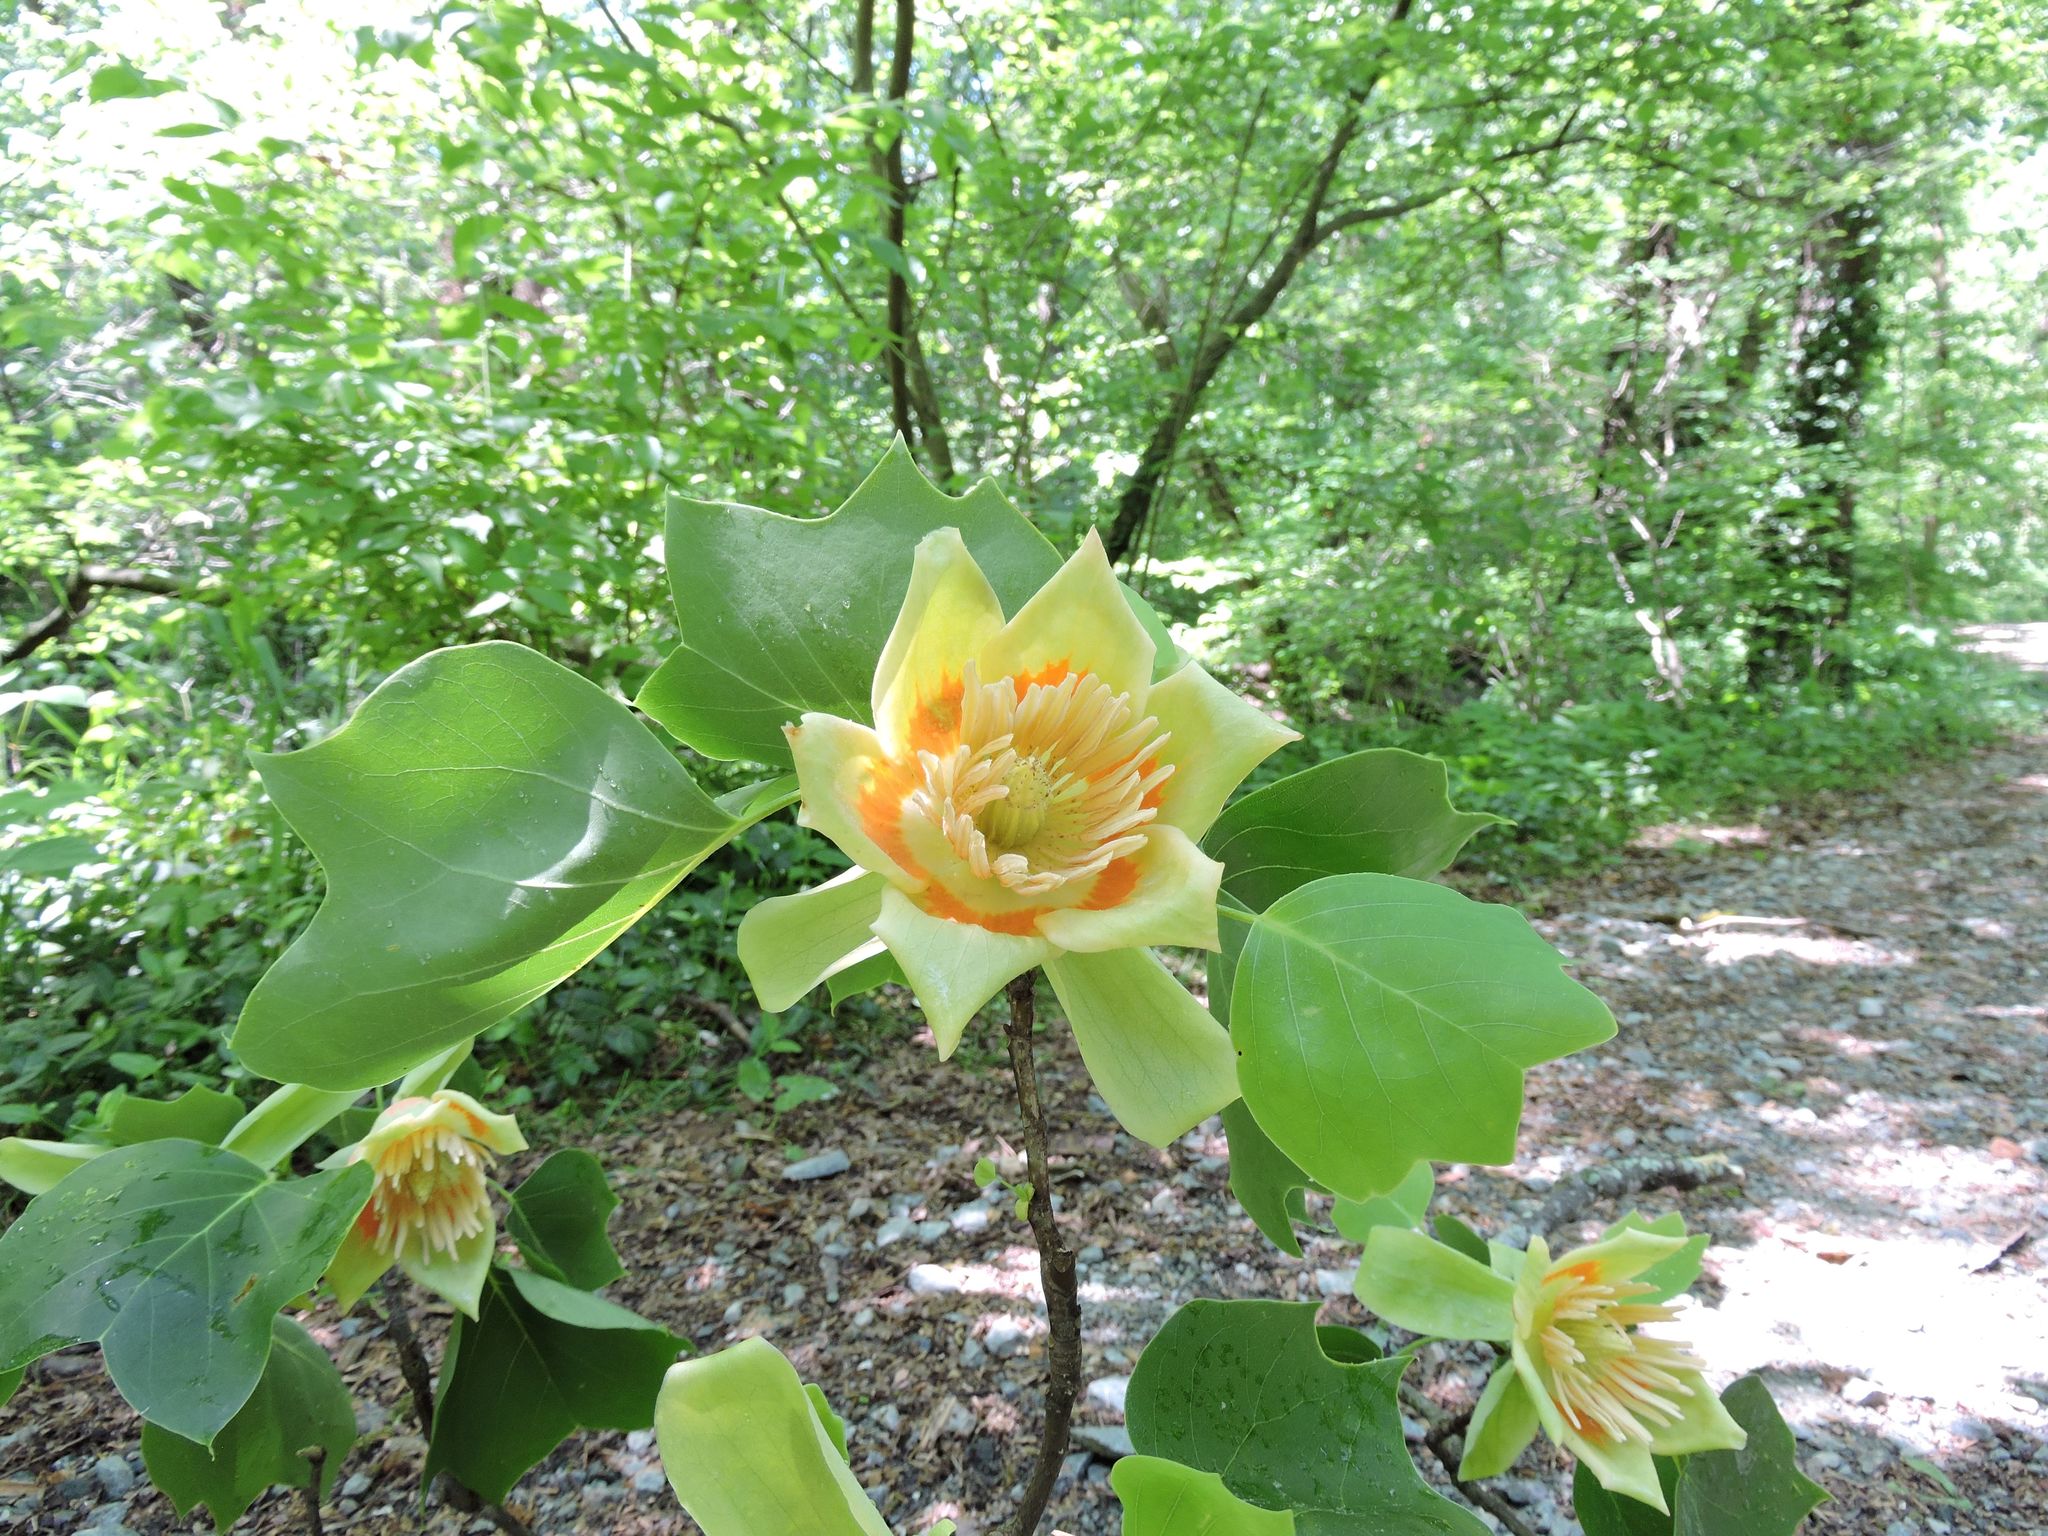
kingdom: Plantae
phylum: Tracheophyta
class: Magnoliopsida
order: Magnoliales
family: Magnoliaceae
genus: Liriodendron
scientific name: Liriodendron tulipifera
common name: Tulip tree
